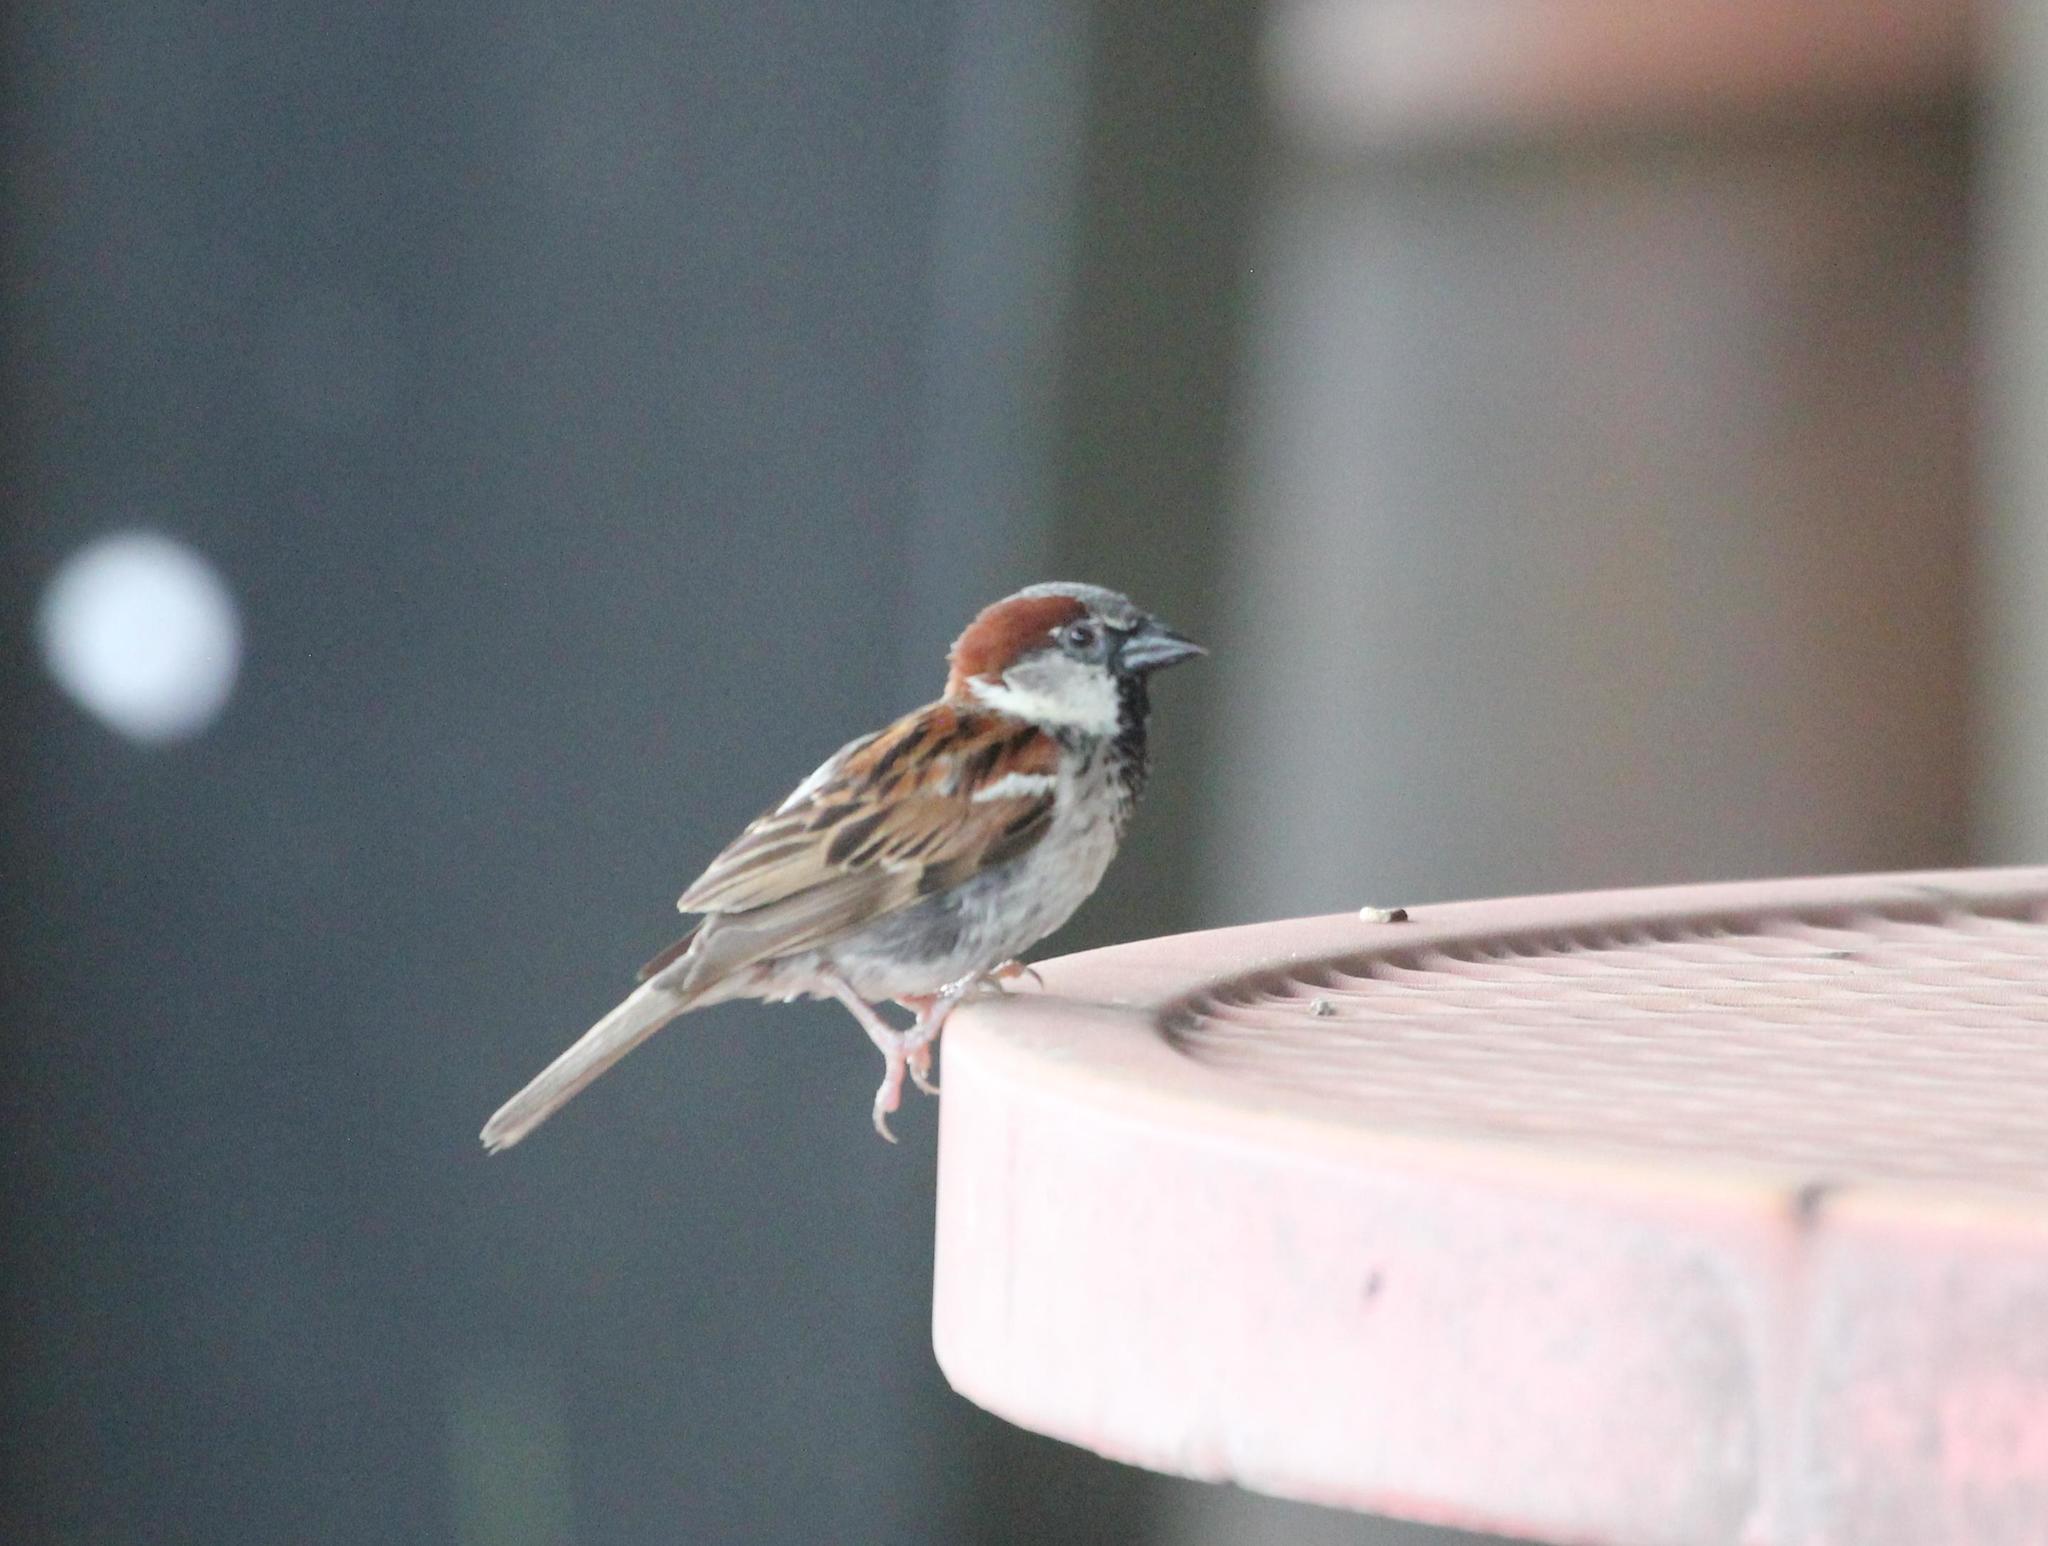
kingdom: Animalia
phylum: Chordata
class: Aves
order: Passeriformes
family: Passeridae
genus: Passer
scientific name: Passer domesticus
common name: House sparrow
